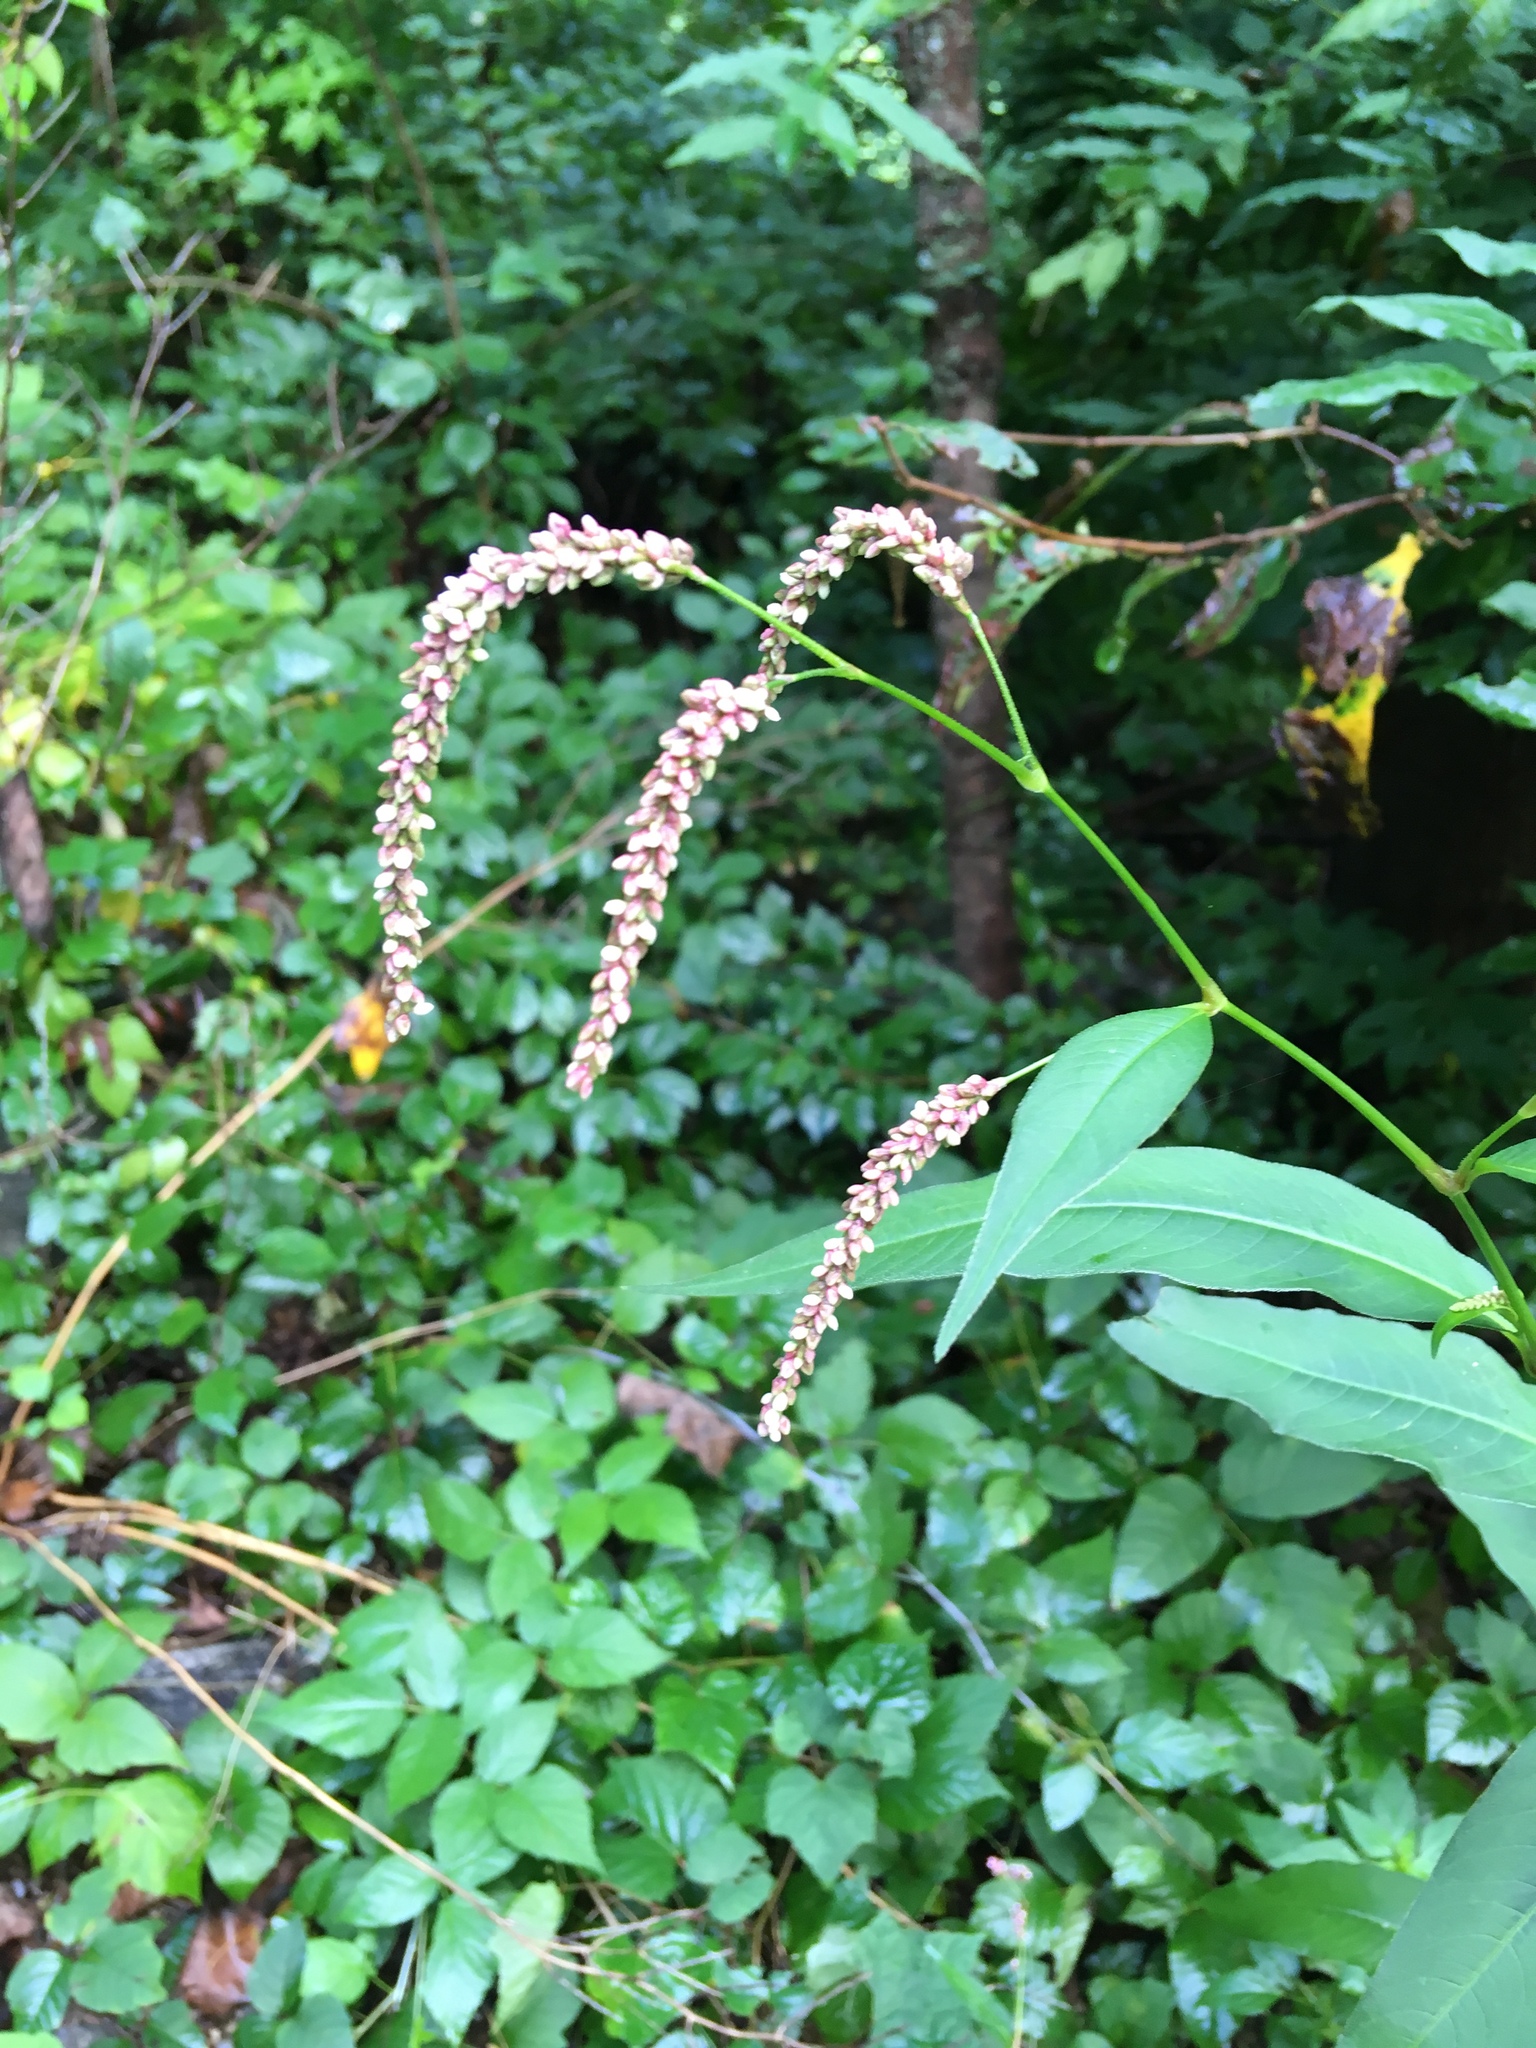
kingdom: Plantae
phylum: Tracheophyta
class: Magnoliopsida
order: Caryophyllales
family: Polygonaceae
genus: Persicaria
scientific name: Persicaria extremiorientalis
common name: Far-eastern smartweed
